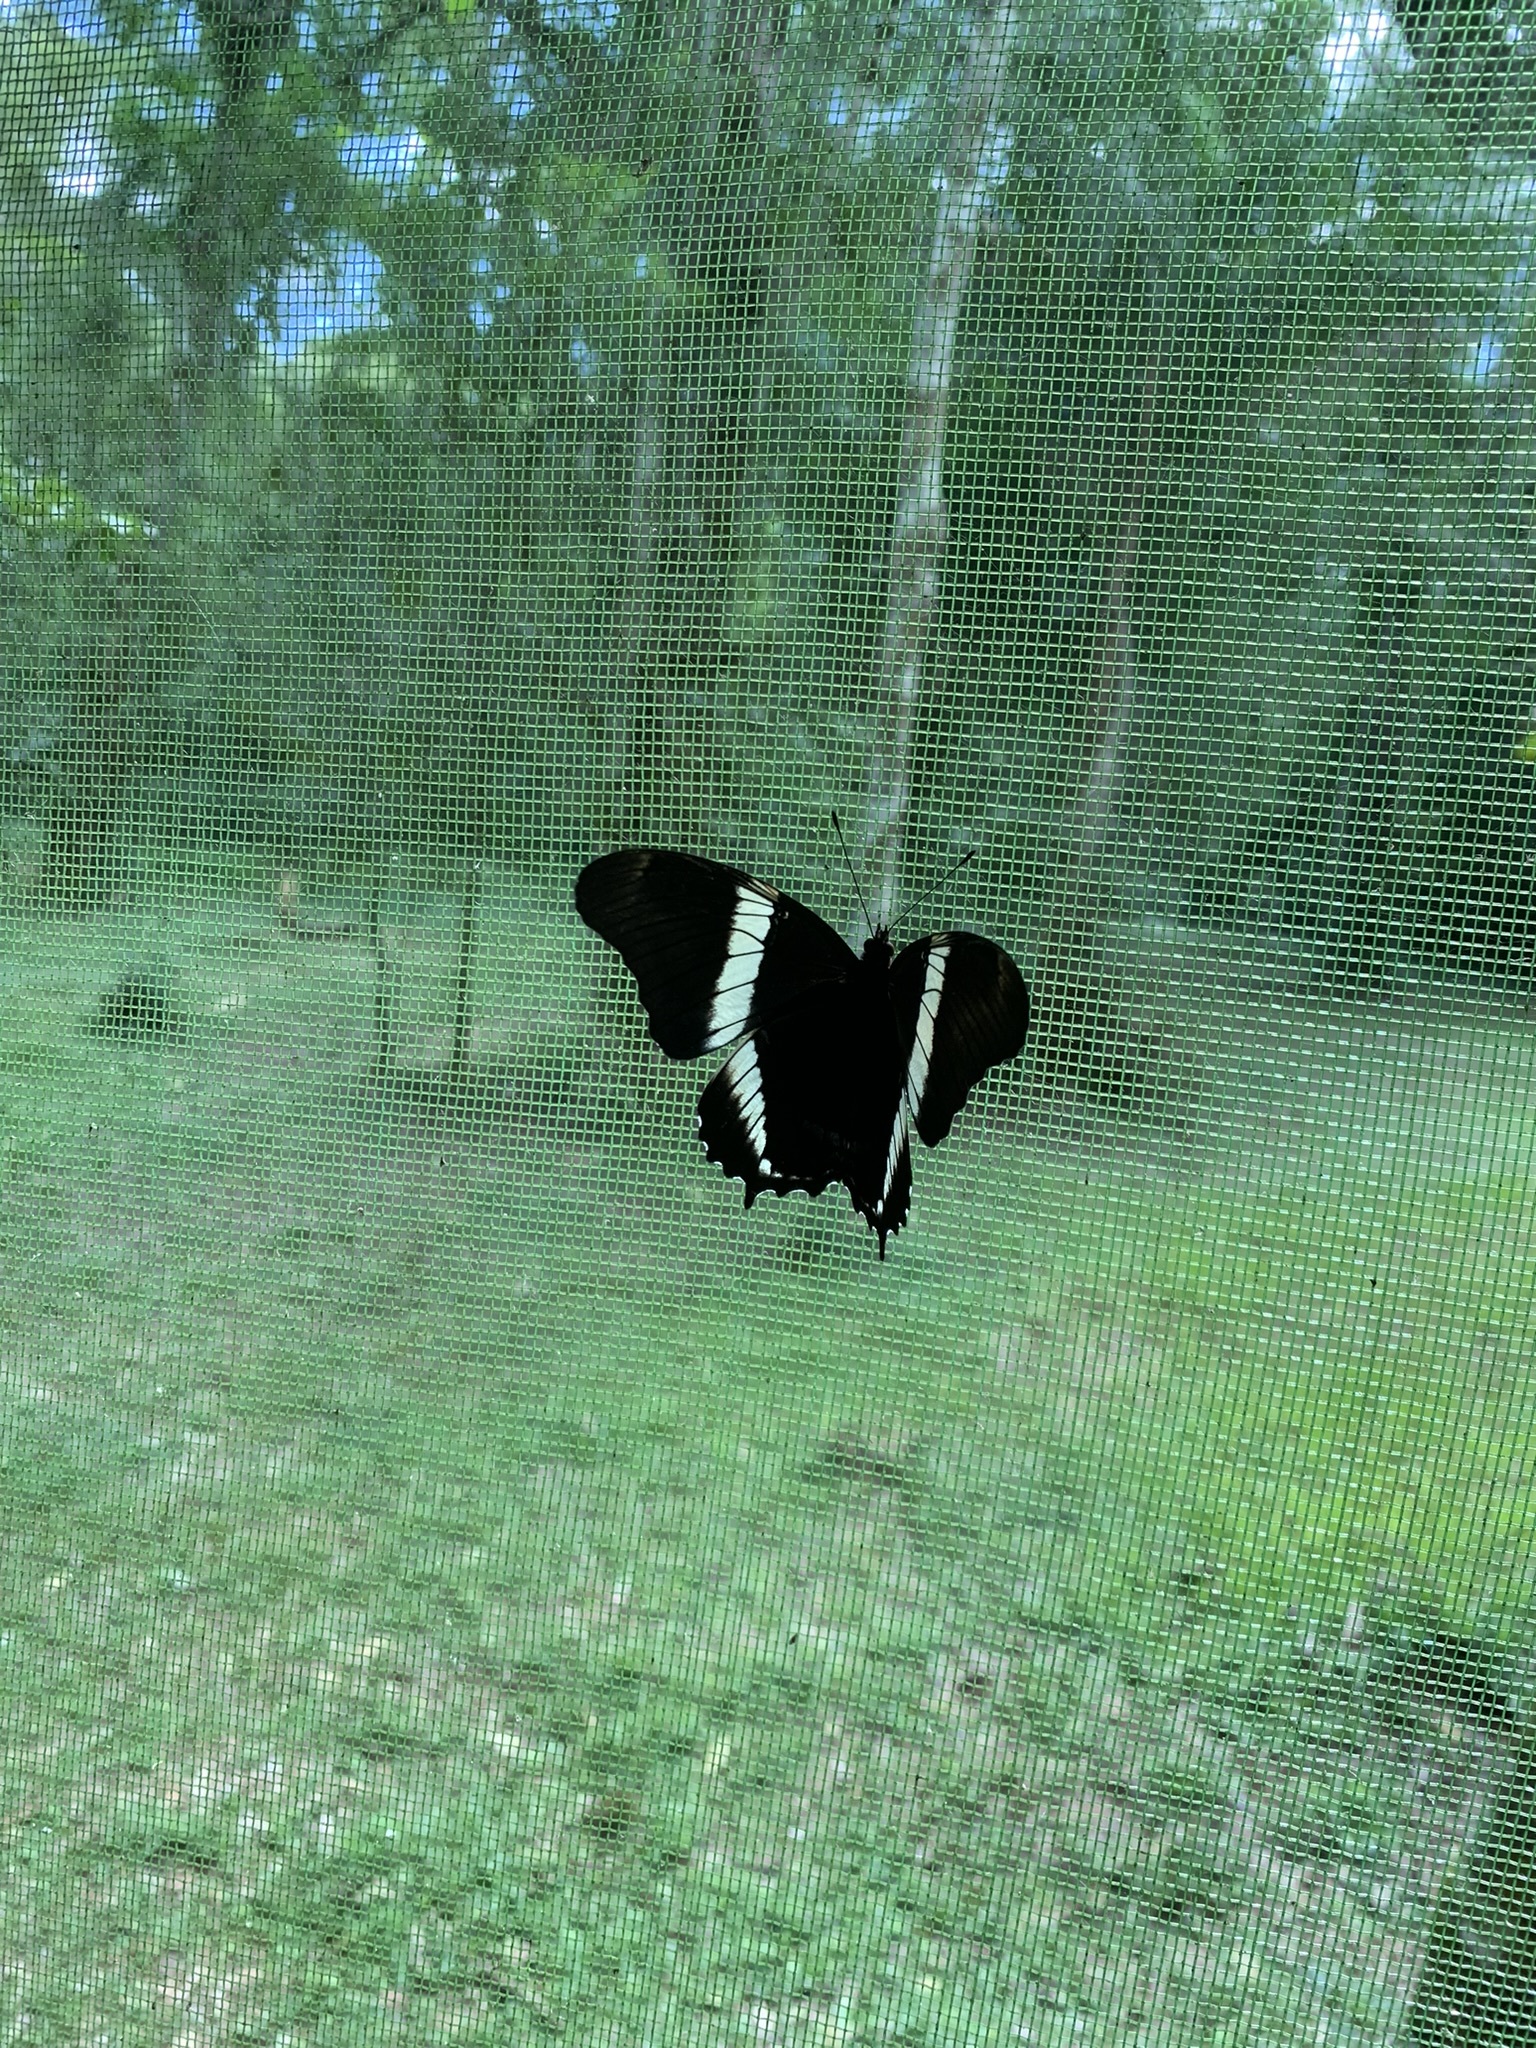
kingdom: Animalia
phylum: Arthropoda
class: Insecta
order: Lepidoptera
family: Nymphalidae
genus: Siproeta
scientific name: Siproeta epaphus
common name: Rusty-tipped page
